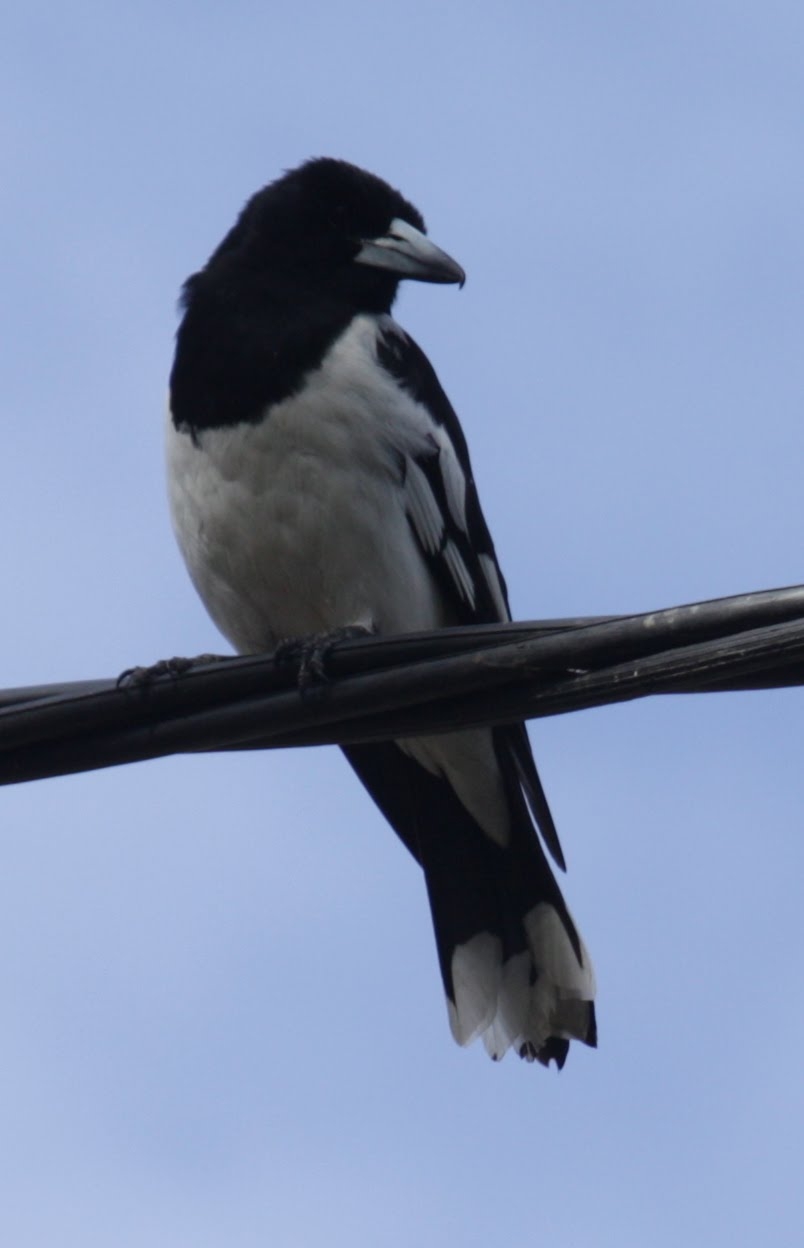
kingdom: Animalia
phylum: Chordata
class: Aves
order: Passeriformes
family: Cracticidae
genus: Cracticus
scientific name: Cracticus nigrogularis
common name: Pied butcherbird
